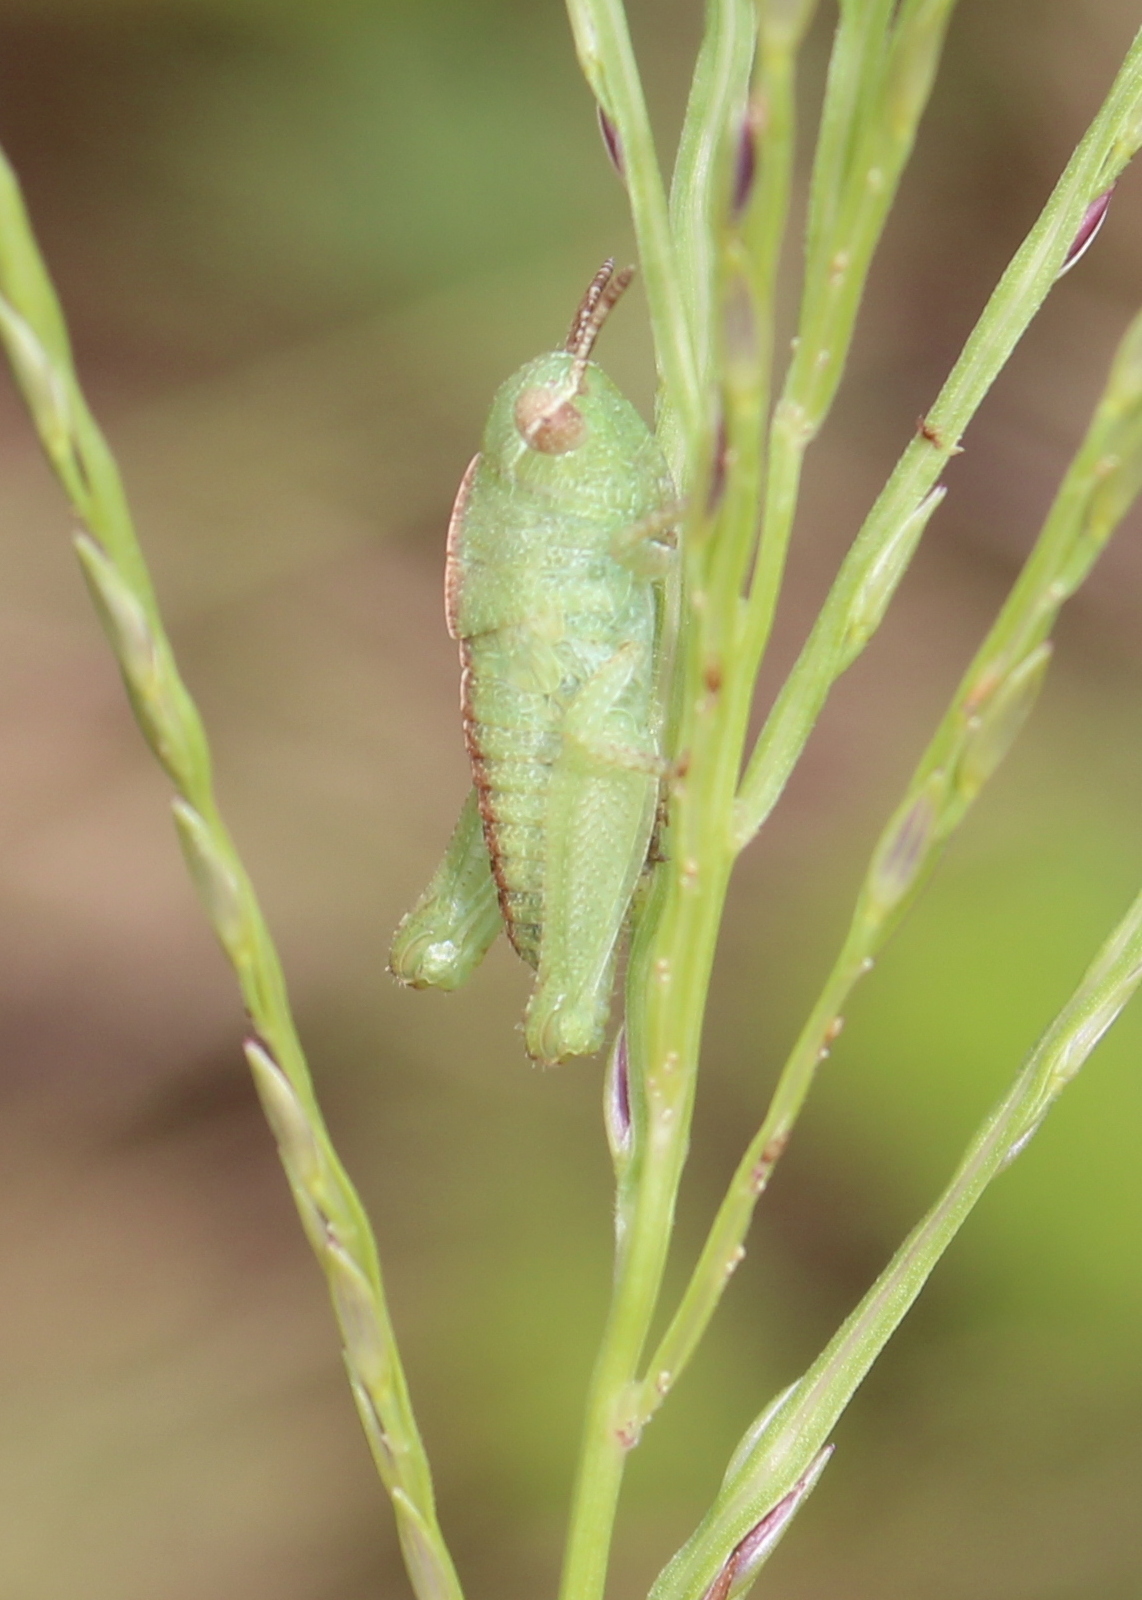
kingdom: Animalia
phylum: Arthropoda
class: Insecta
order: Orthoptera
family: Acrididae
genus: Chortophaga
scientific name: Chortophaga viridifasciata
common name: Green-striped grasshopper
